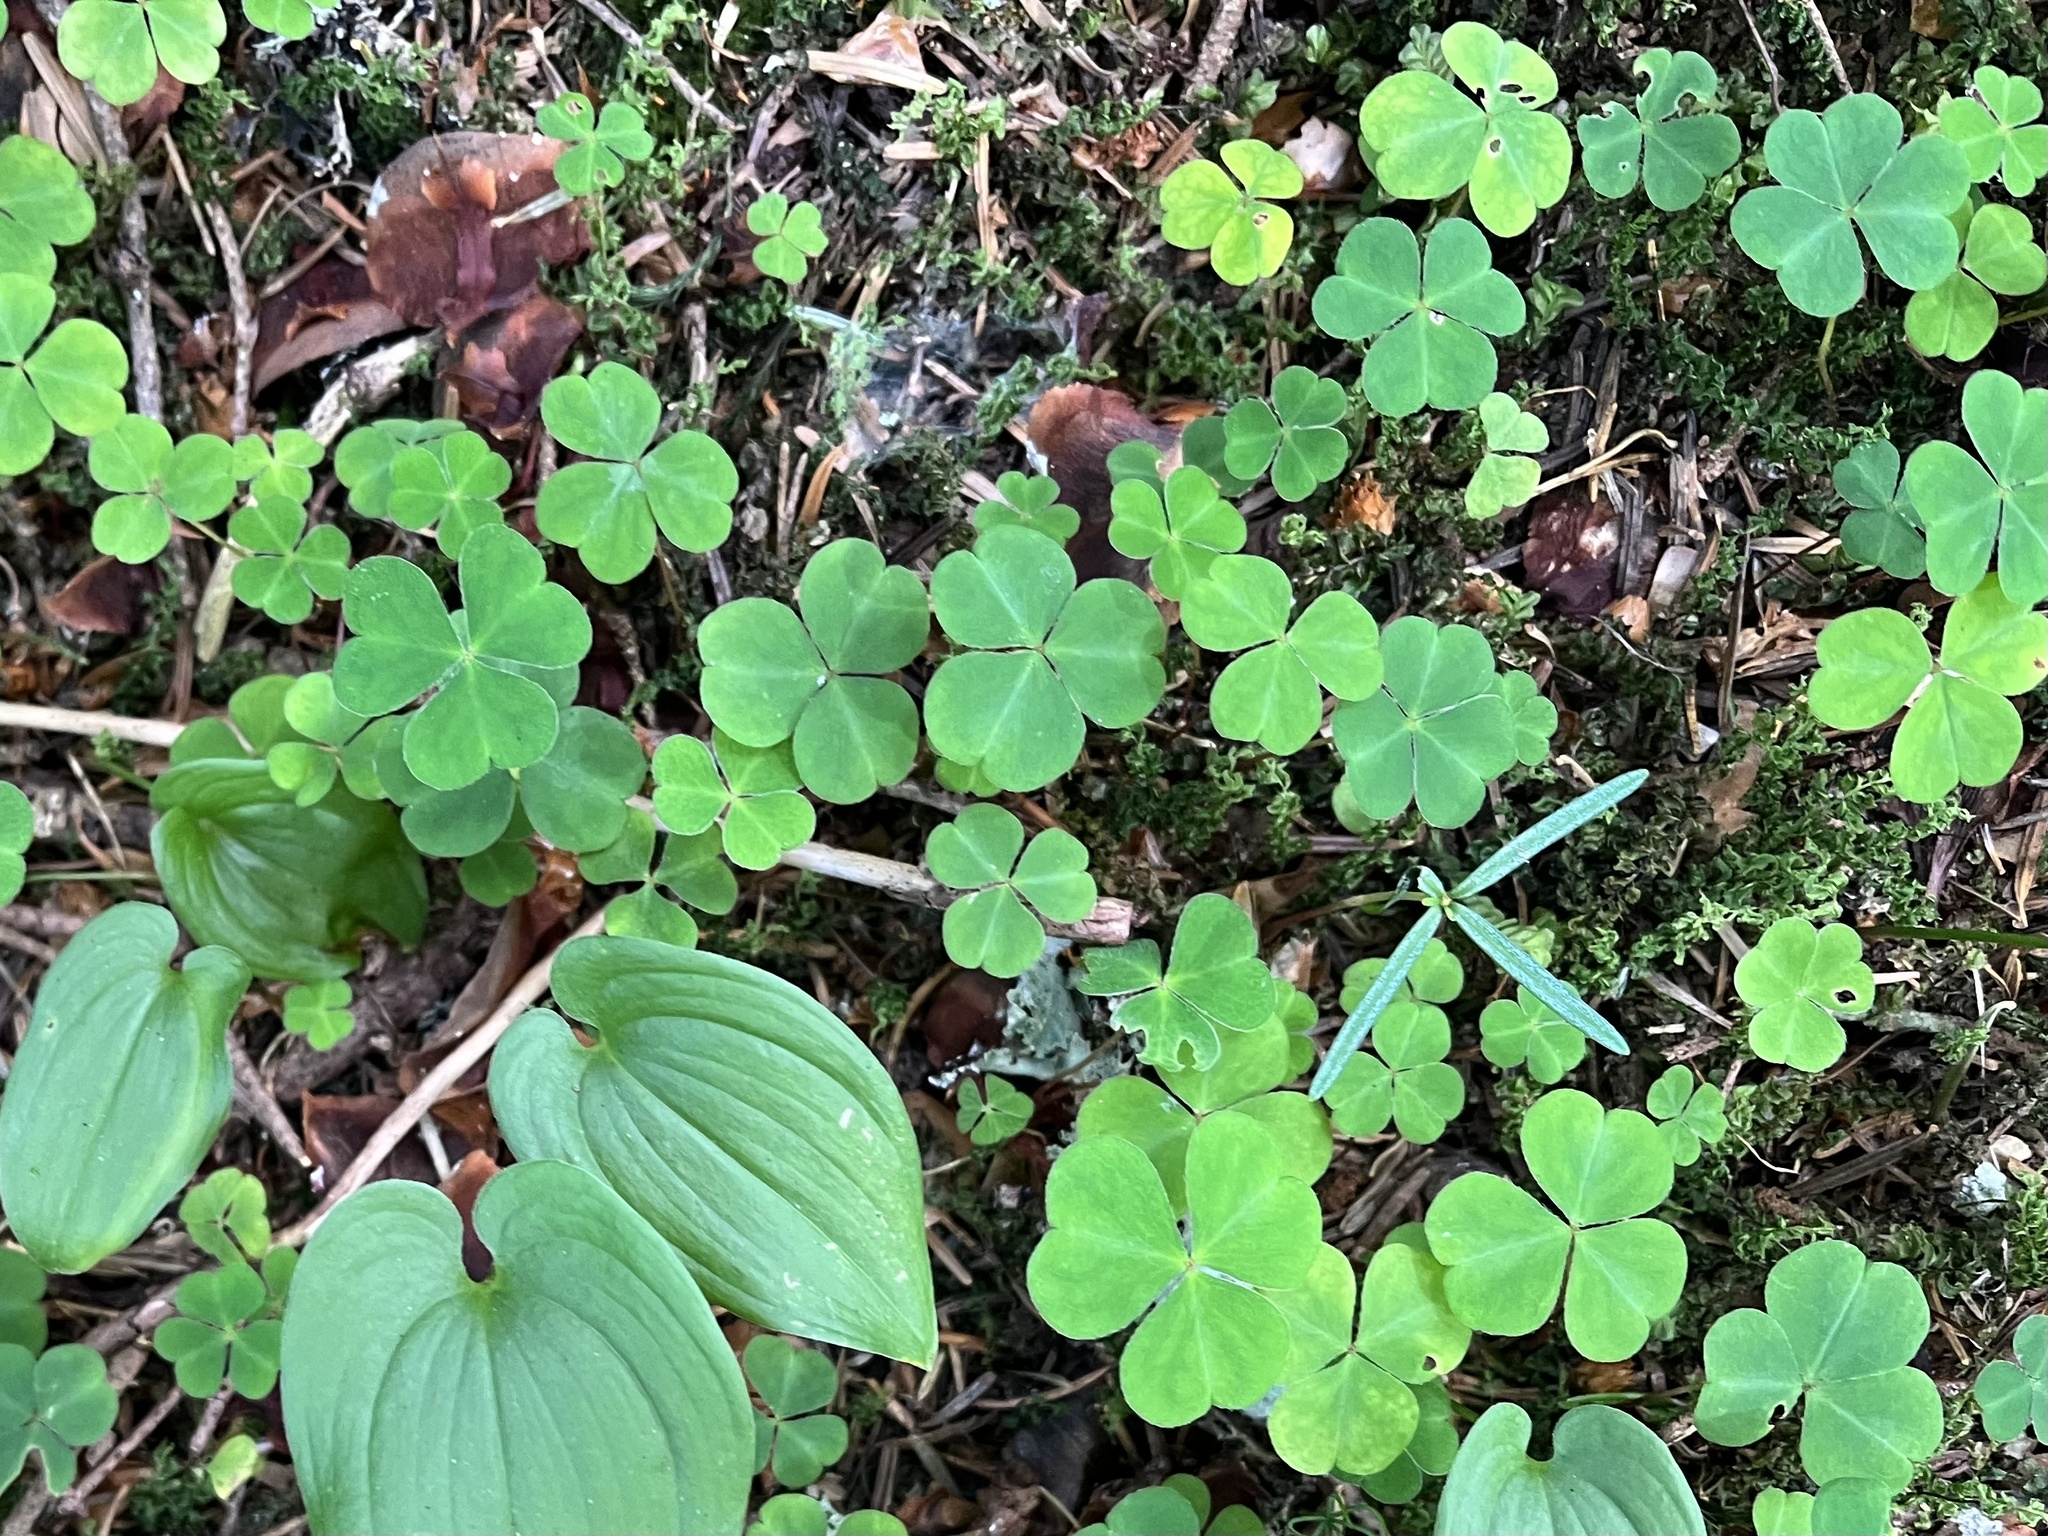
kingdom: Plantae
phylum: Tracheophyta
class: Magnoliopsida
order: Oxalidales
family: Oxalidaceae
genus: Oxalis
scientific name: Oxalis acetosella
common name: Wood-sorrel
